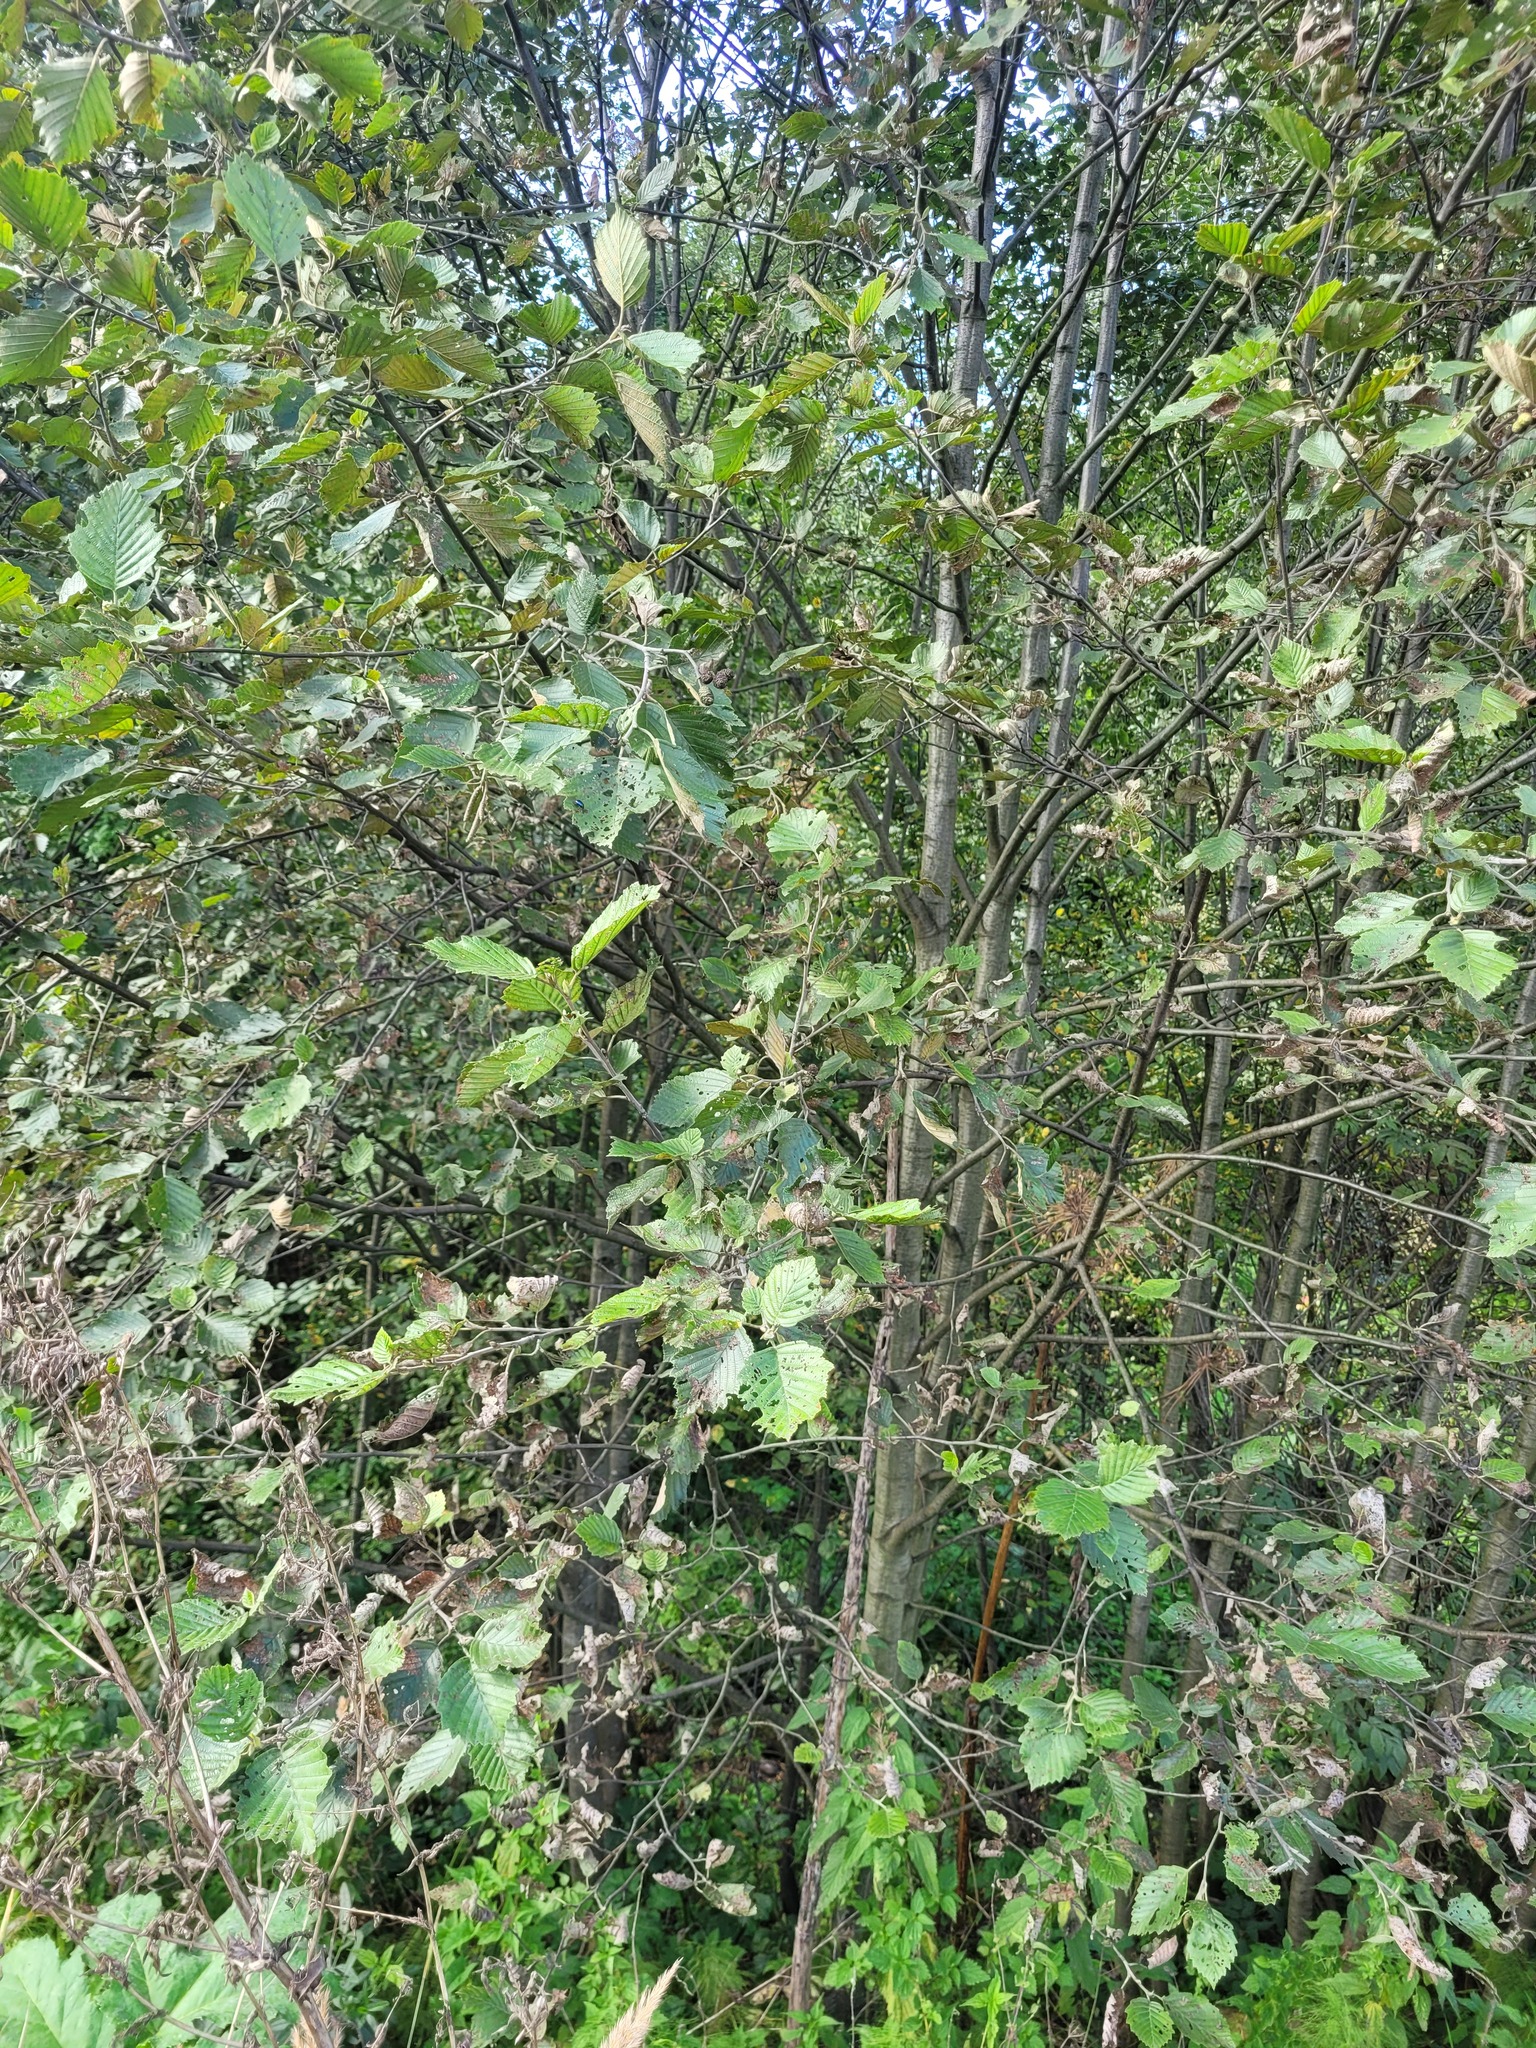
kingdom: Plantae
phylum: Tracheophyta
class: Magnoliopsida
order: Fagales
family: Betulaceae
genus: Alnus
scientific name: Alnus incana
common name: Grey alder
